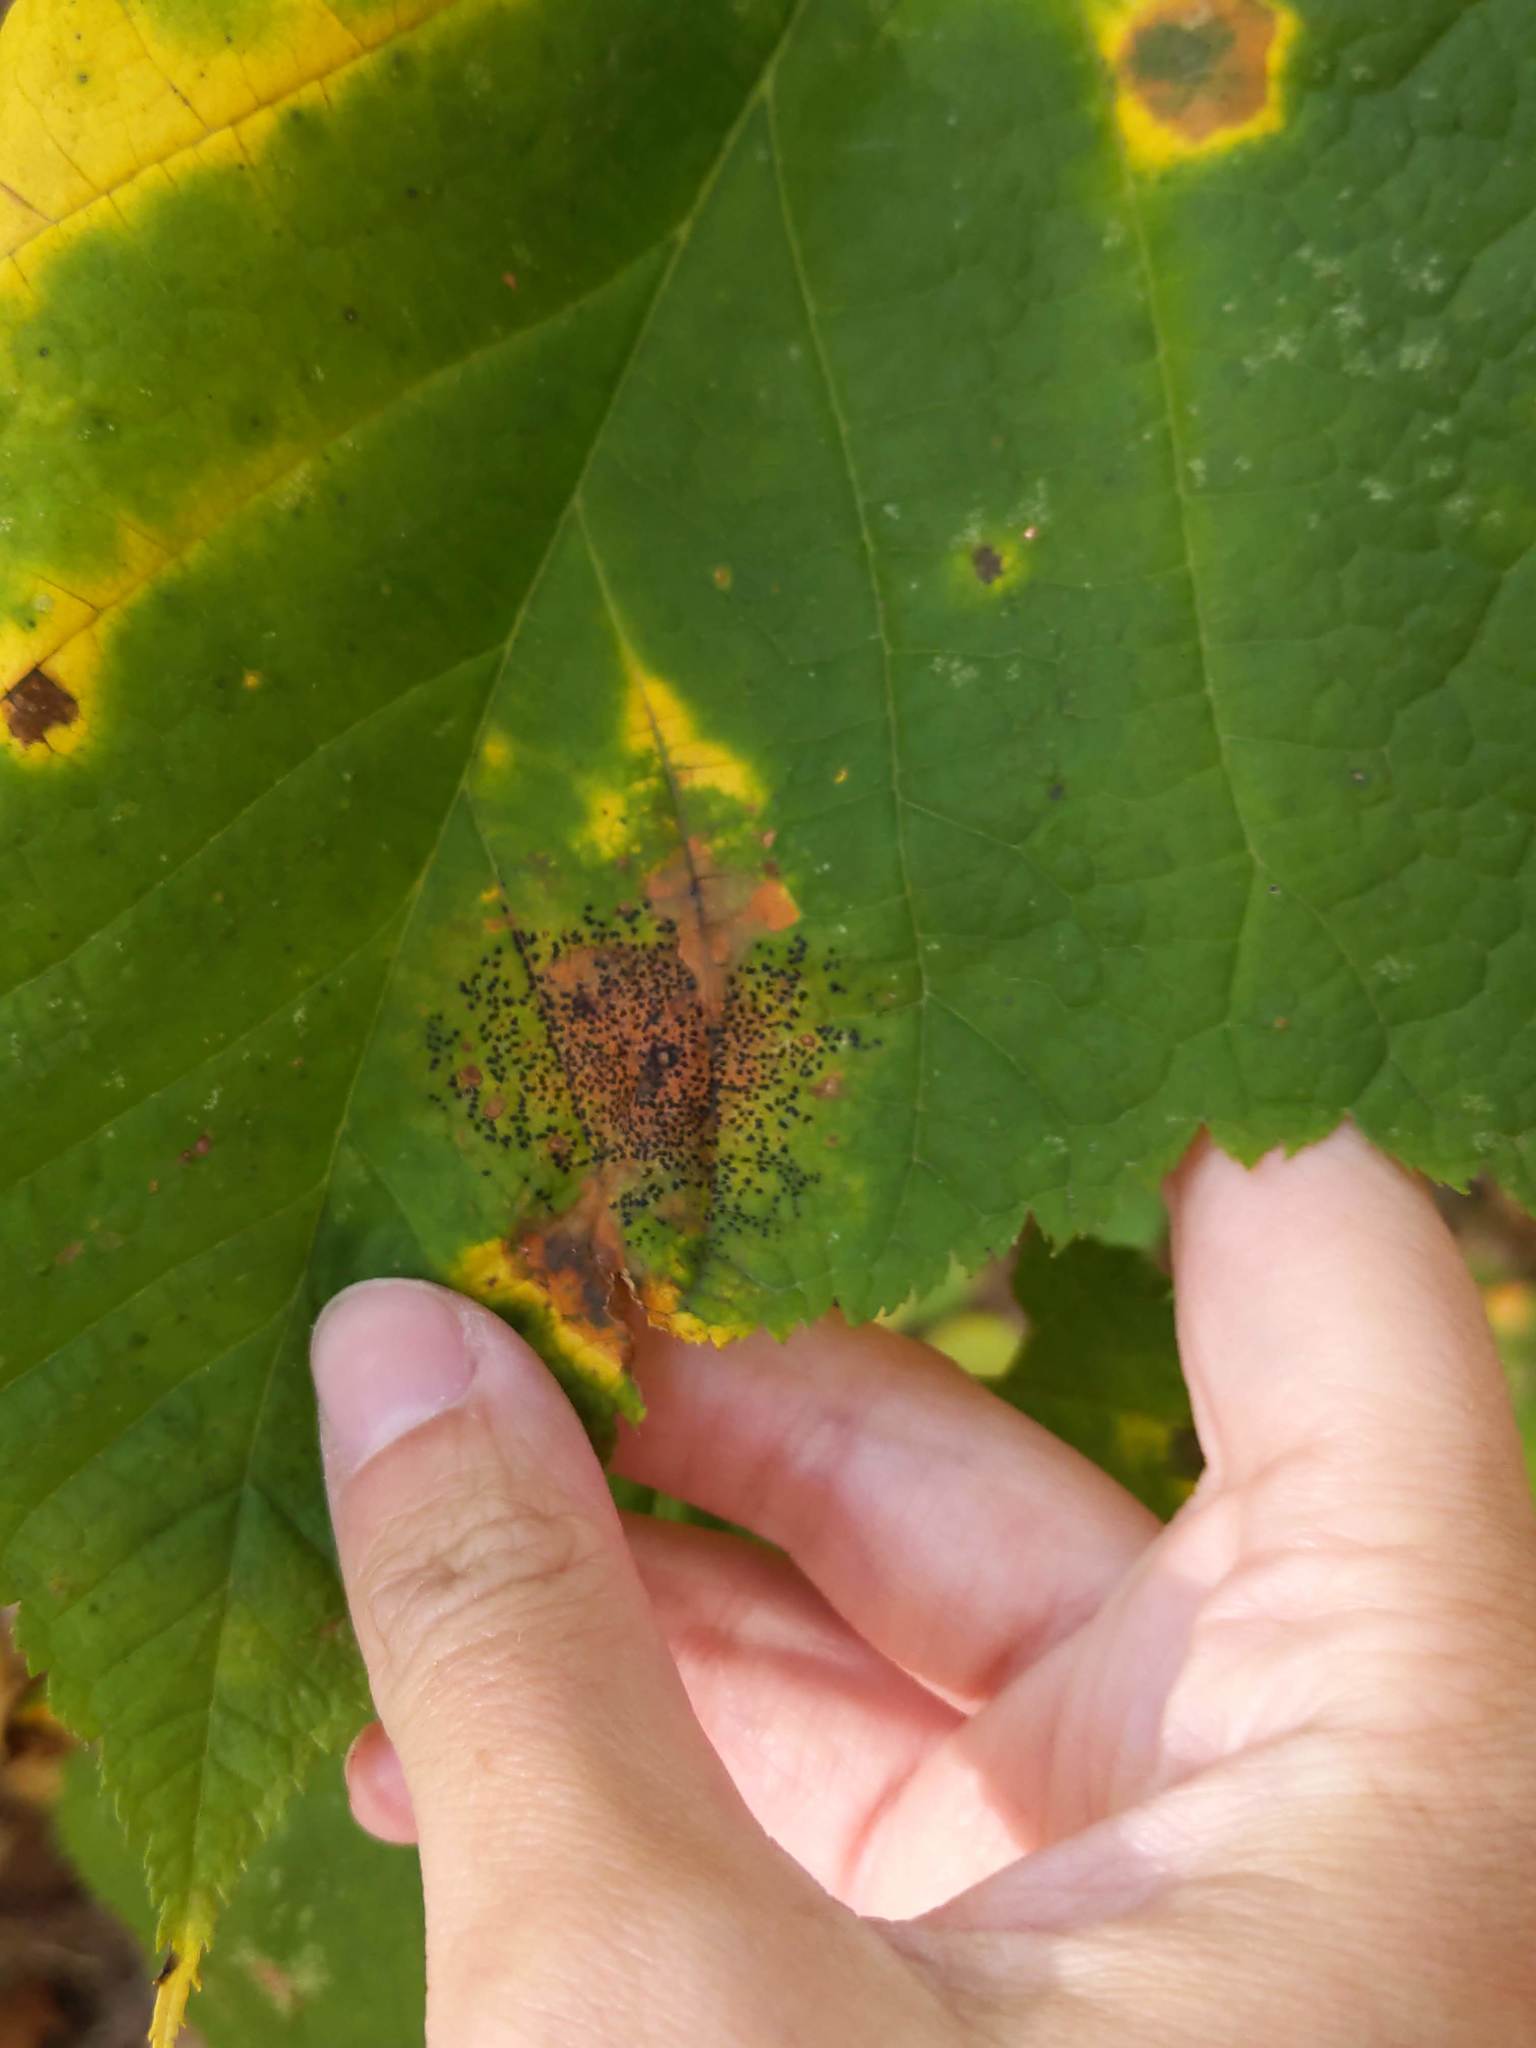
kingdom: Fungi
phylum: Ascomycota
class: Leotiomycetes
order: Rhytismatales
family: Rhytismataceae
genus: Rhytisma
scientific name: Rhytisma punctatum
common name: Speckled tar spot
